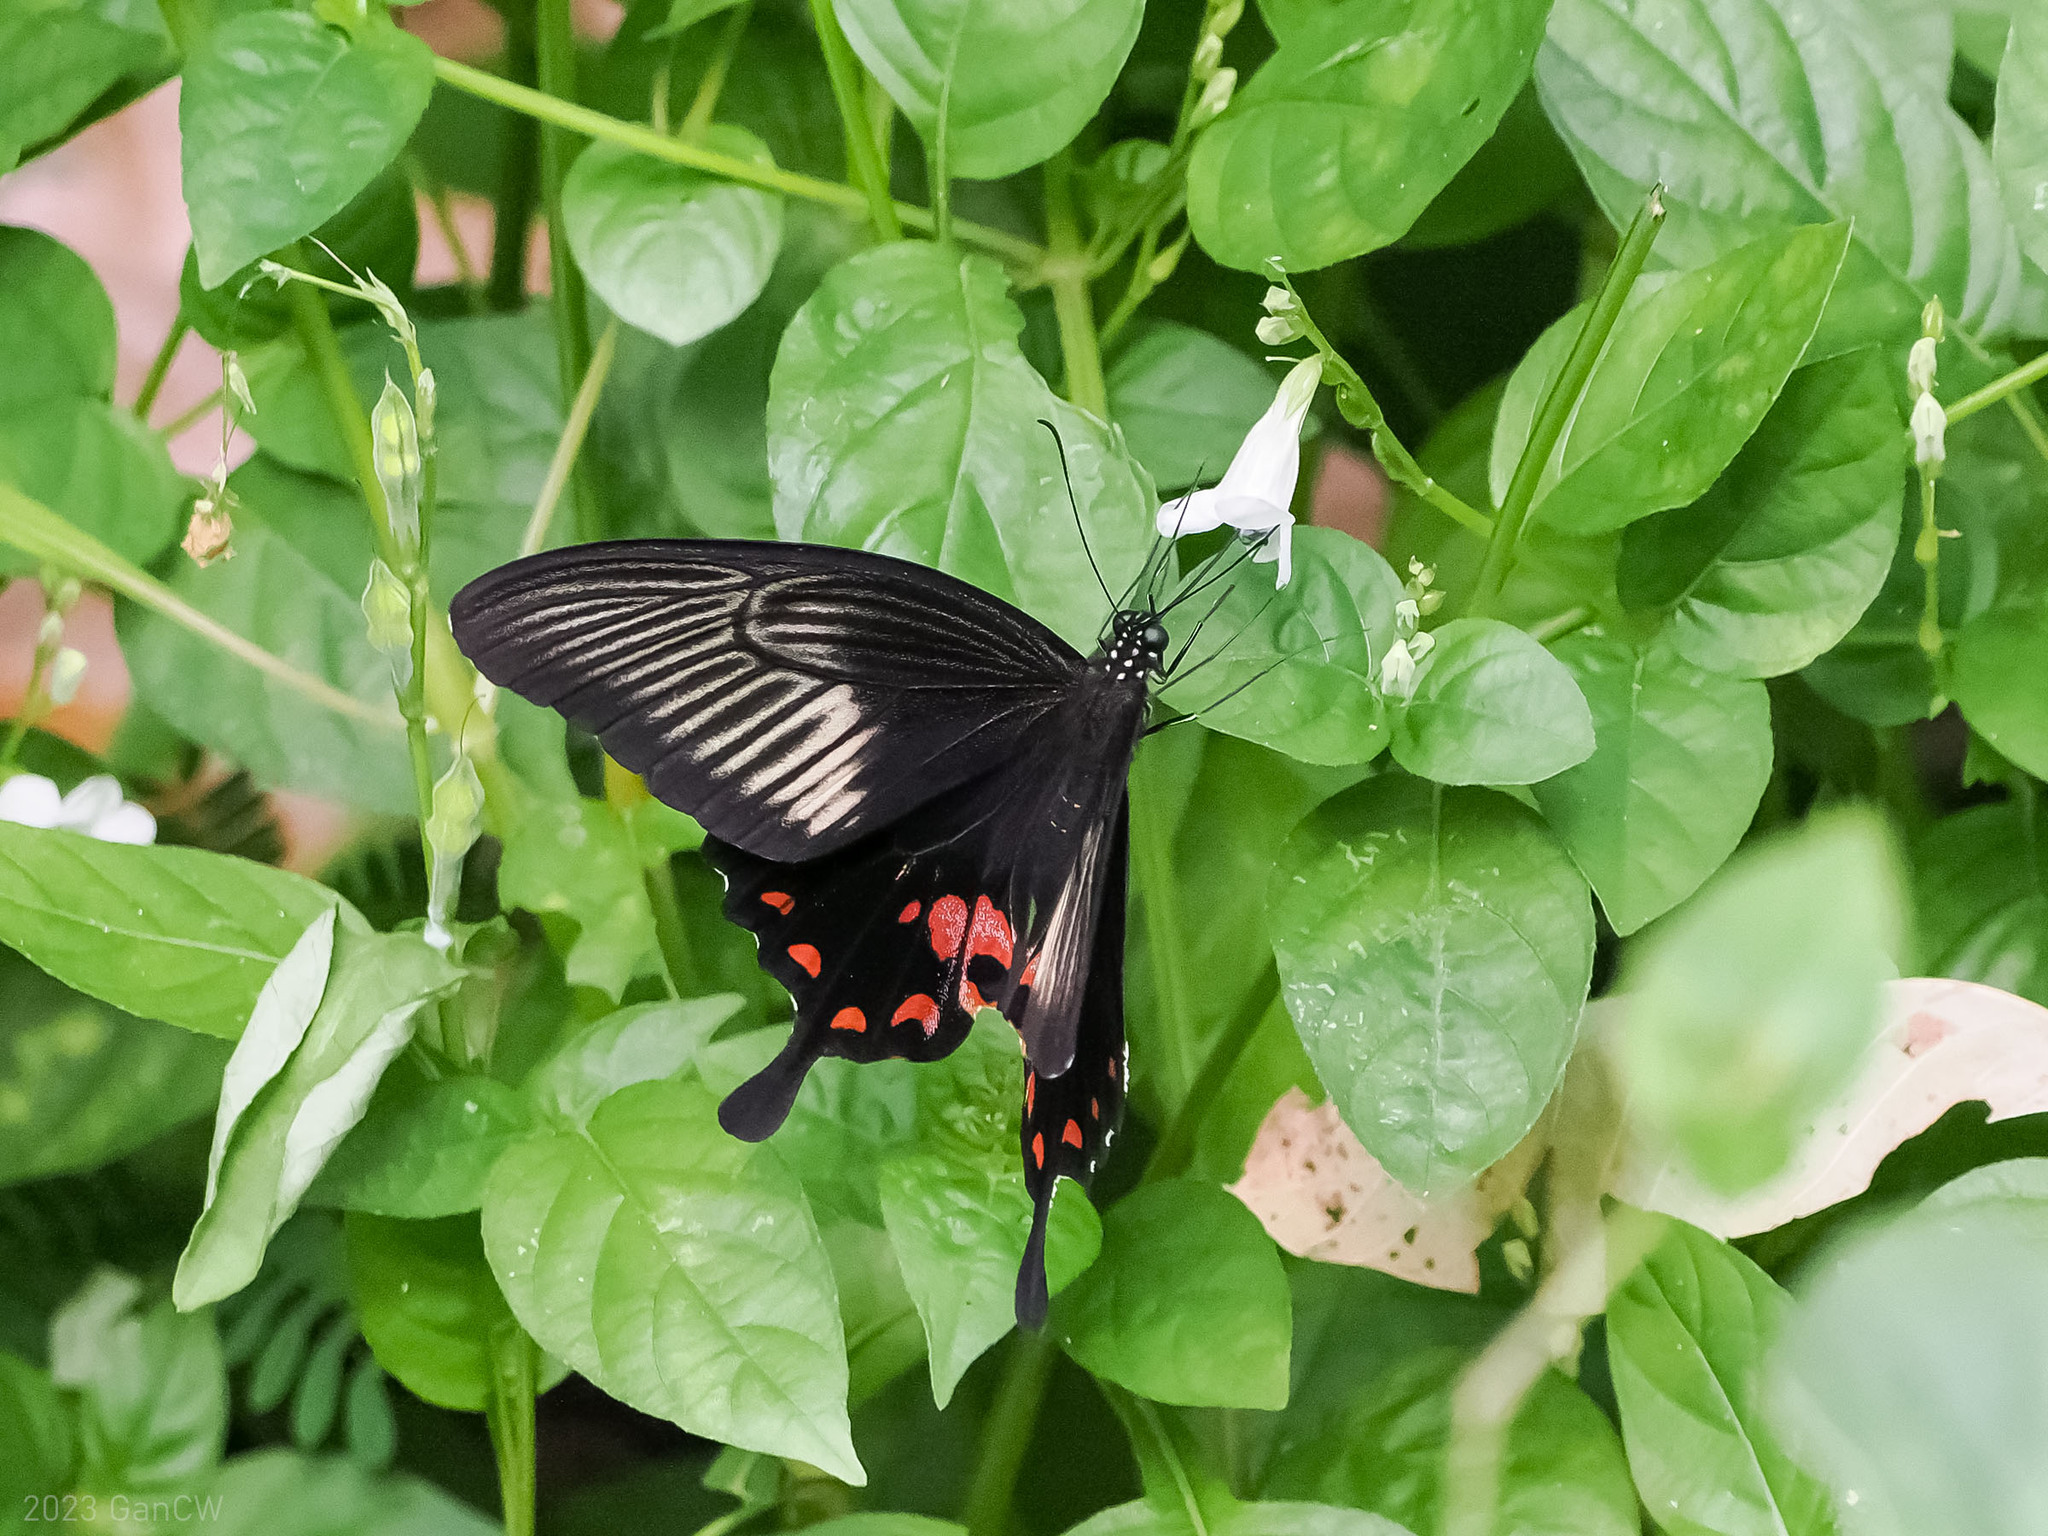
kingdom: Animalia
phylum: Arthropoda
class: Insecta
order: Lepidoptera
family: Papilionidae
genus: Papilio
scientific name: Papilio alphenor
